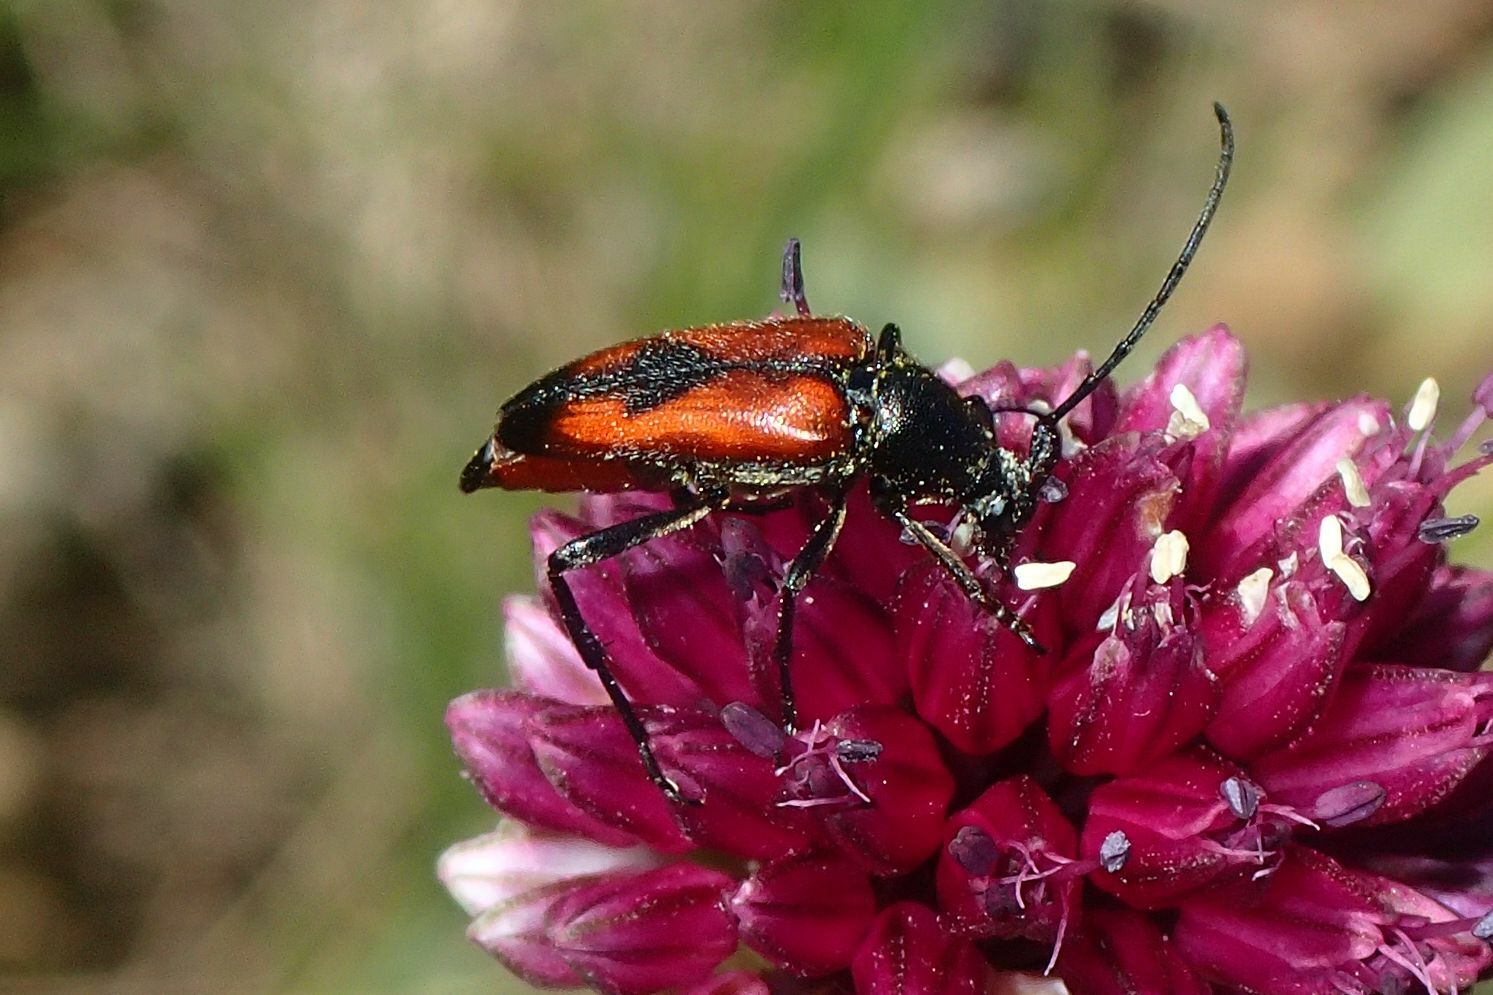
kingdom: Animalia
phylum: Arthropoda
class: Insecta
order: Coleoptera
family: Cerambycidae
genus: Stenurella
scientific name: Stenurella bifasciata
